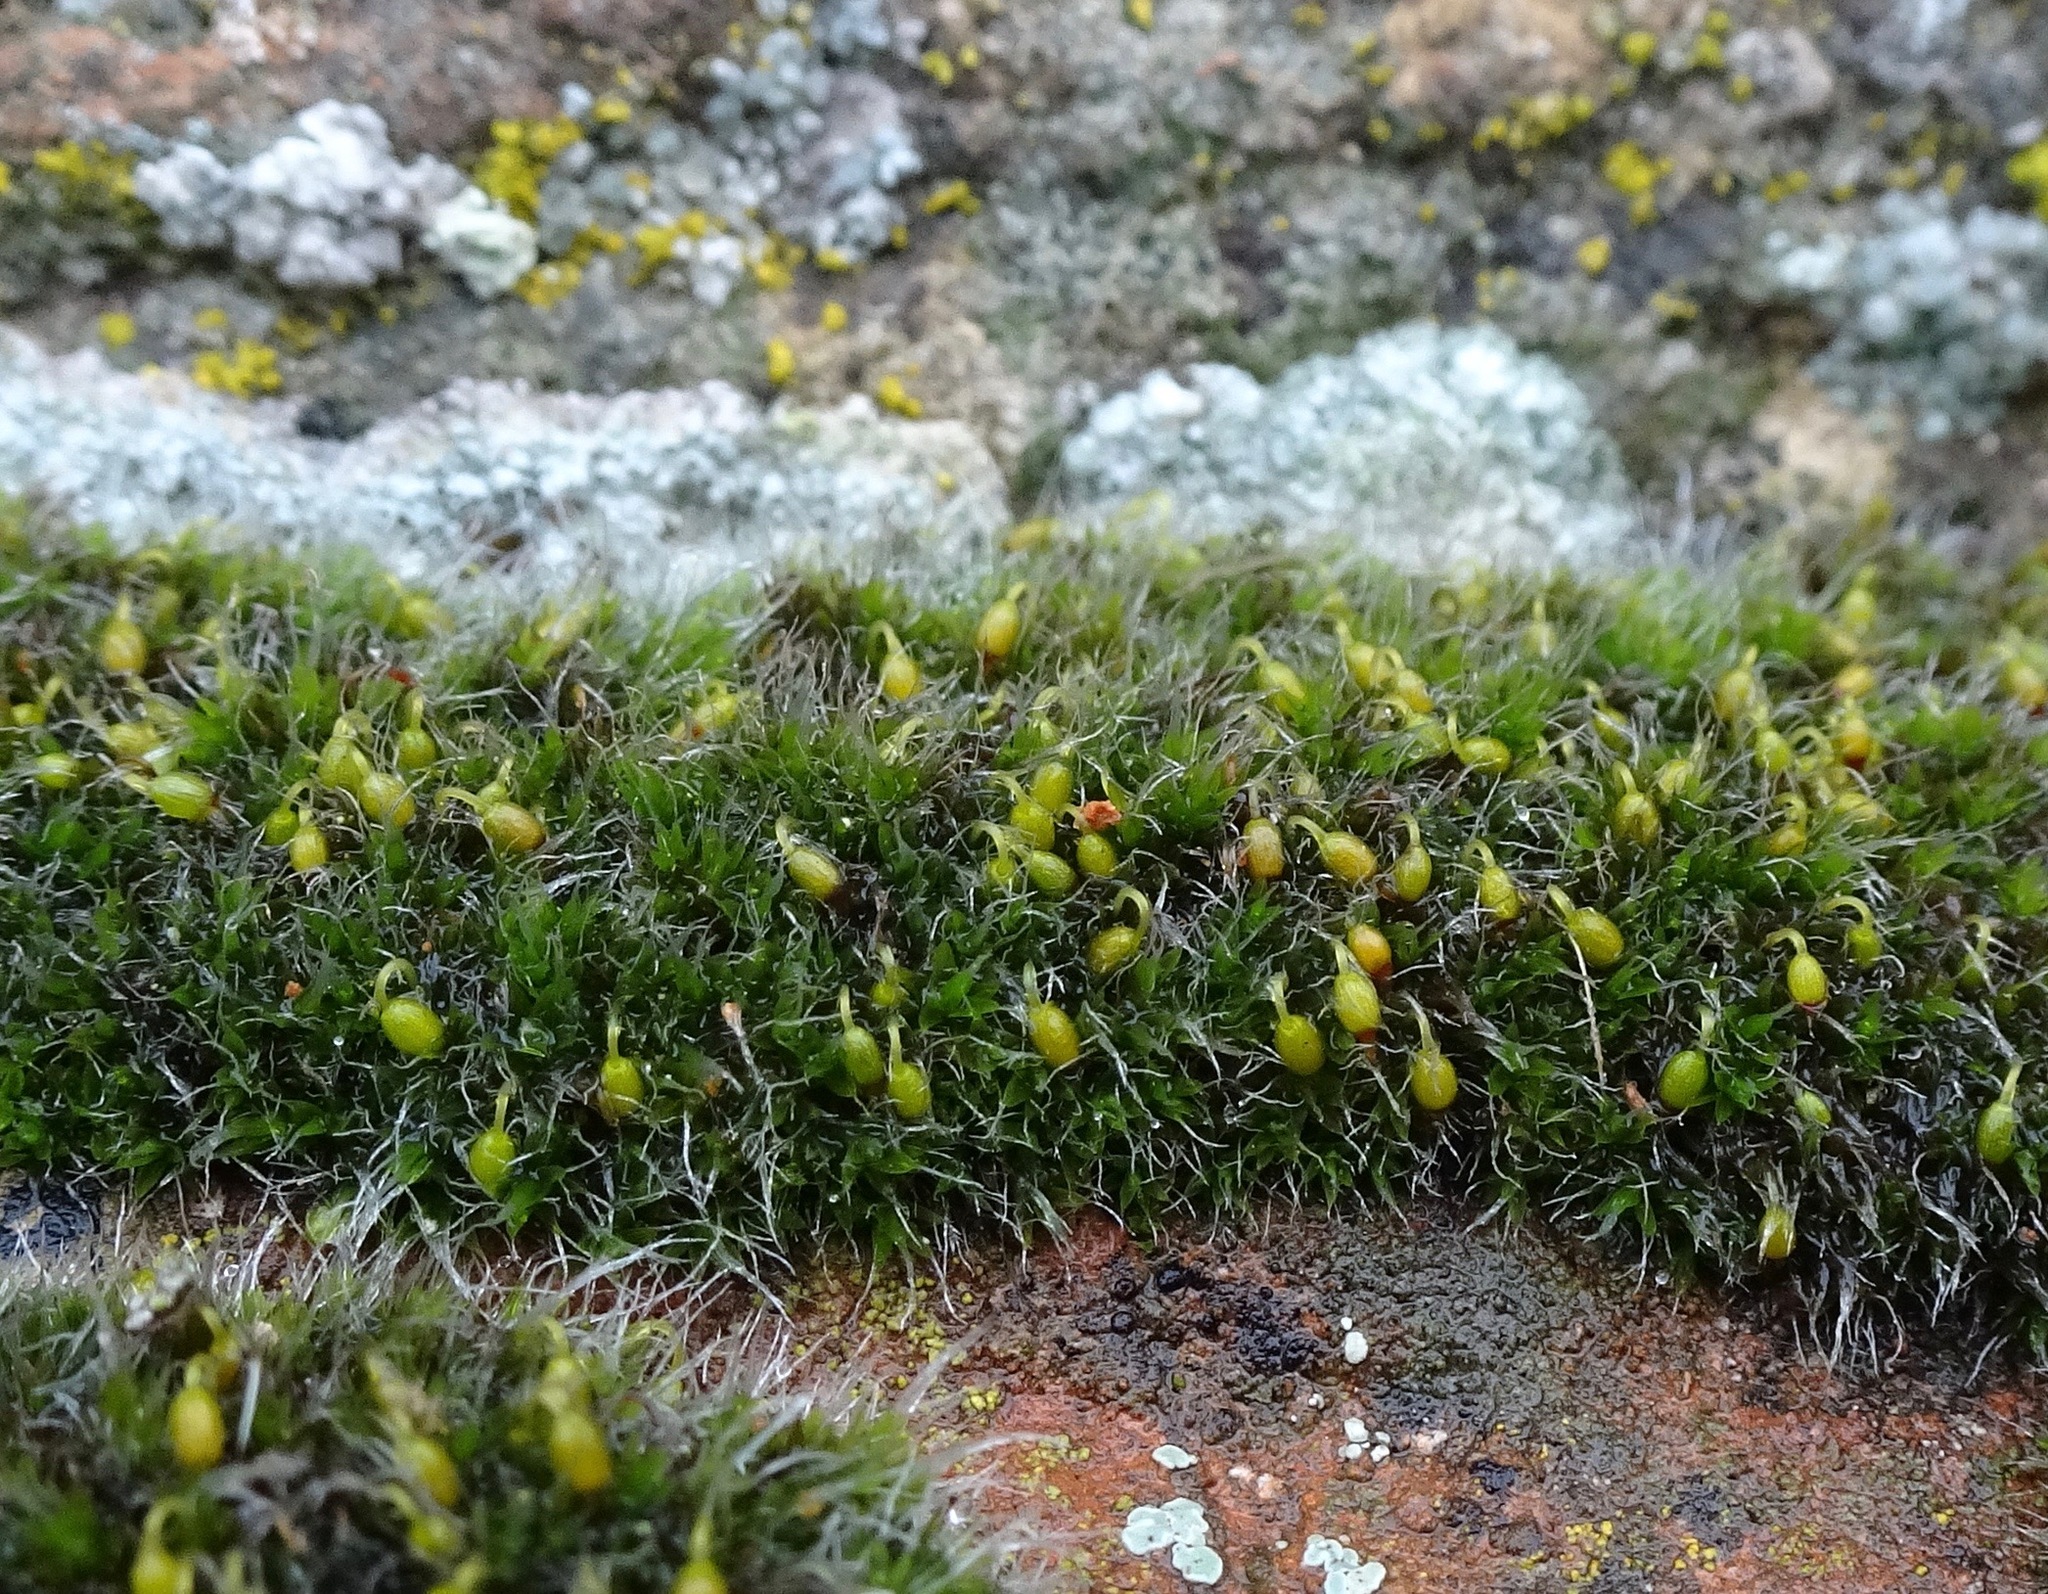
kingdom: Plantae
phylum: Bryophyta
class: Bryopsida
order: Grimmiales
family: Grimmiaceae
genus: Grimmia
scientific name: Grimmia pulvinata
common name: Grey-cushioned grimmia
